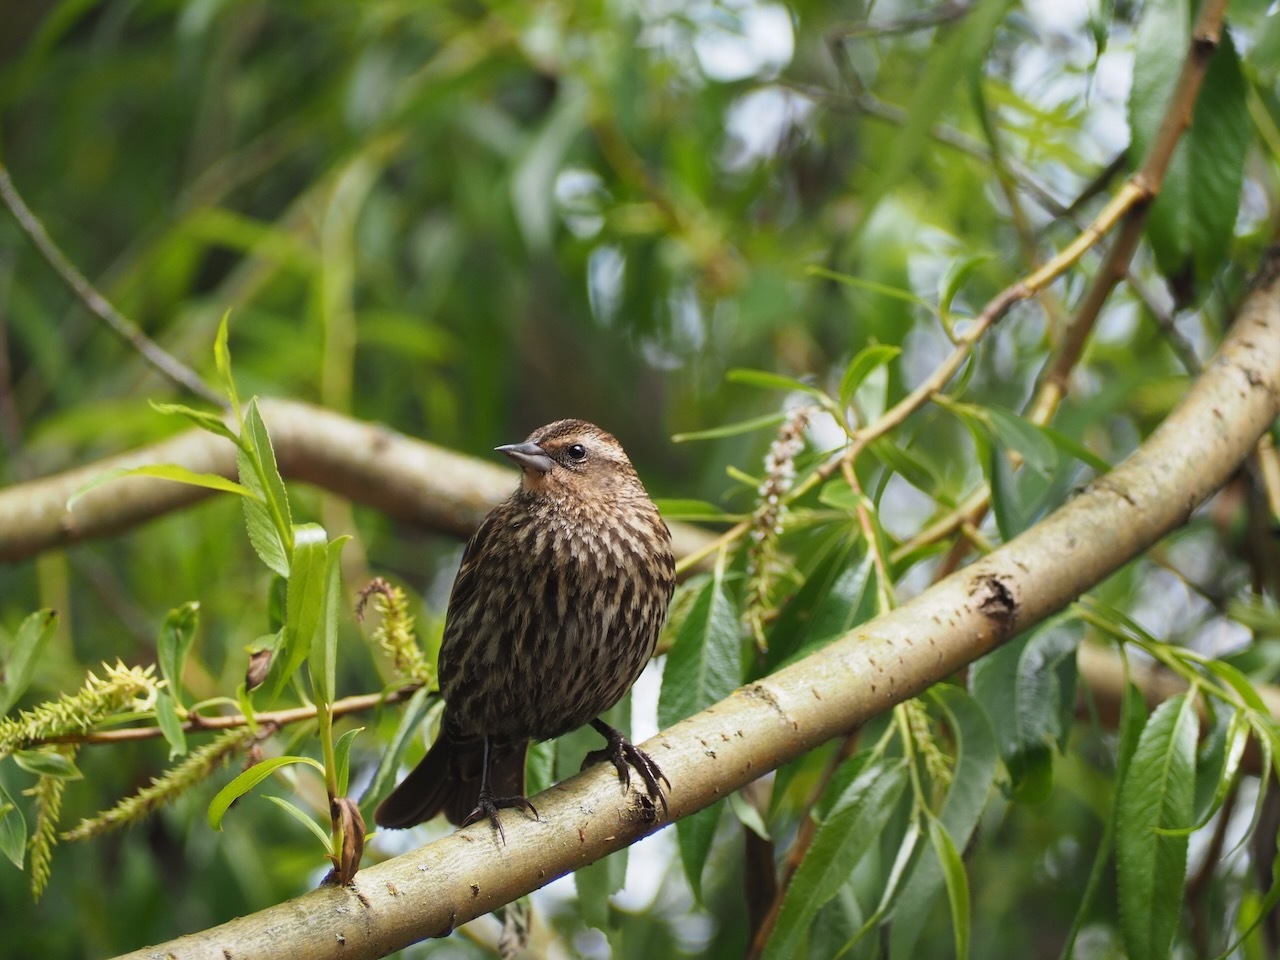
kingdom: Animalia
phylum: Chordata
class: Aves
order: Passeriformes
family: Icteridae
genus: Agelaius
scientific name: Agelaius phoeniceus
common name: Red-winged blackbird
